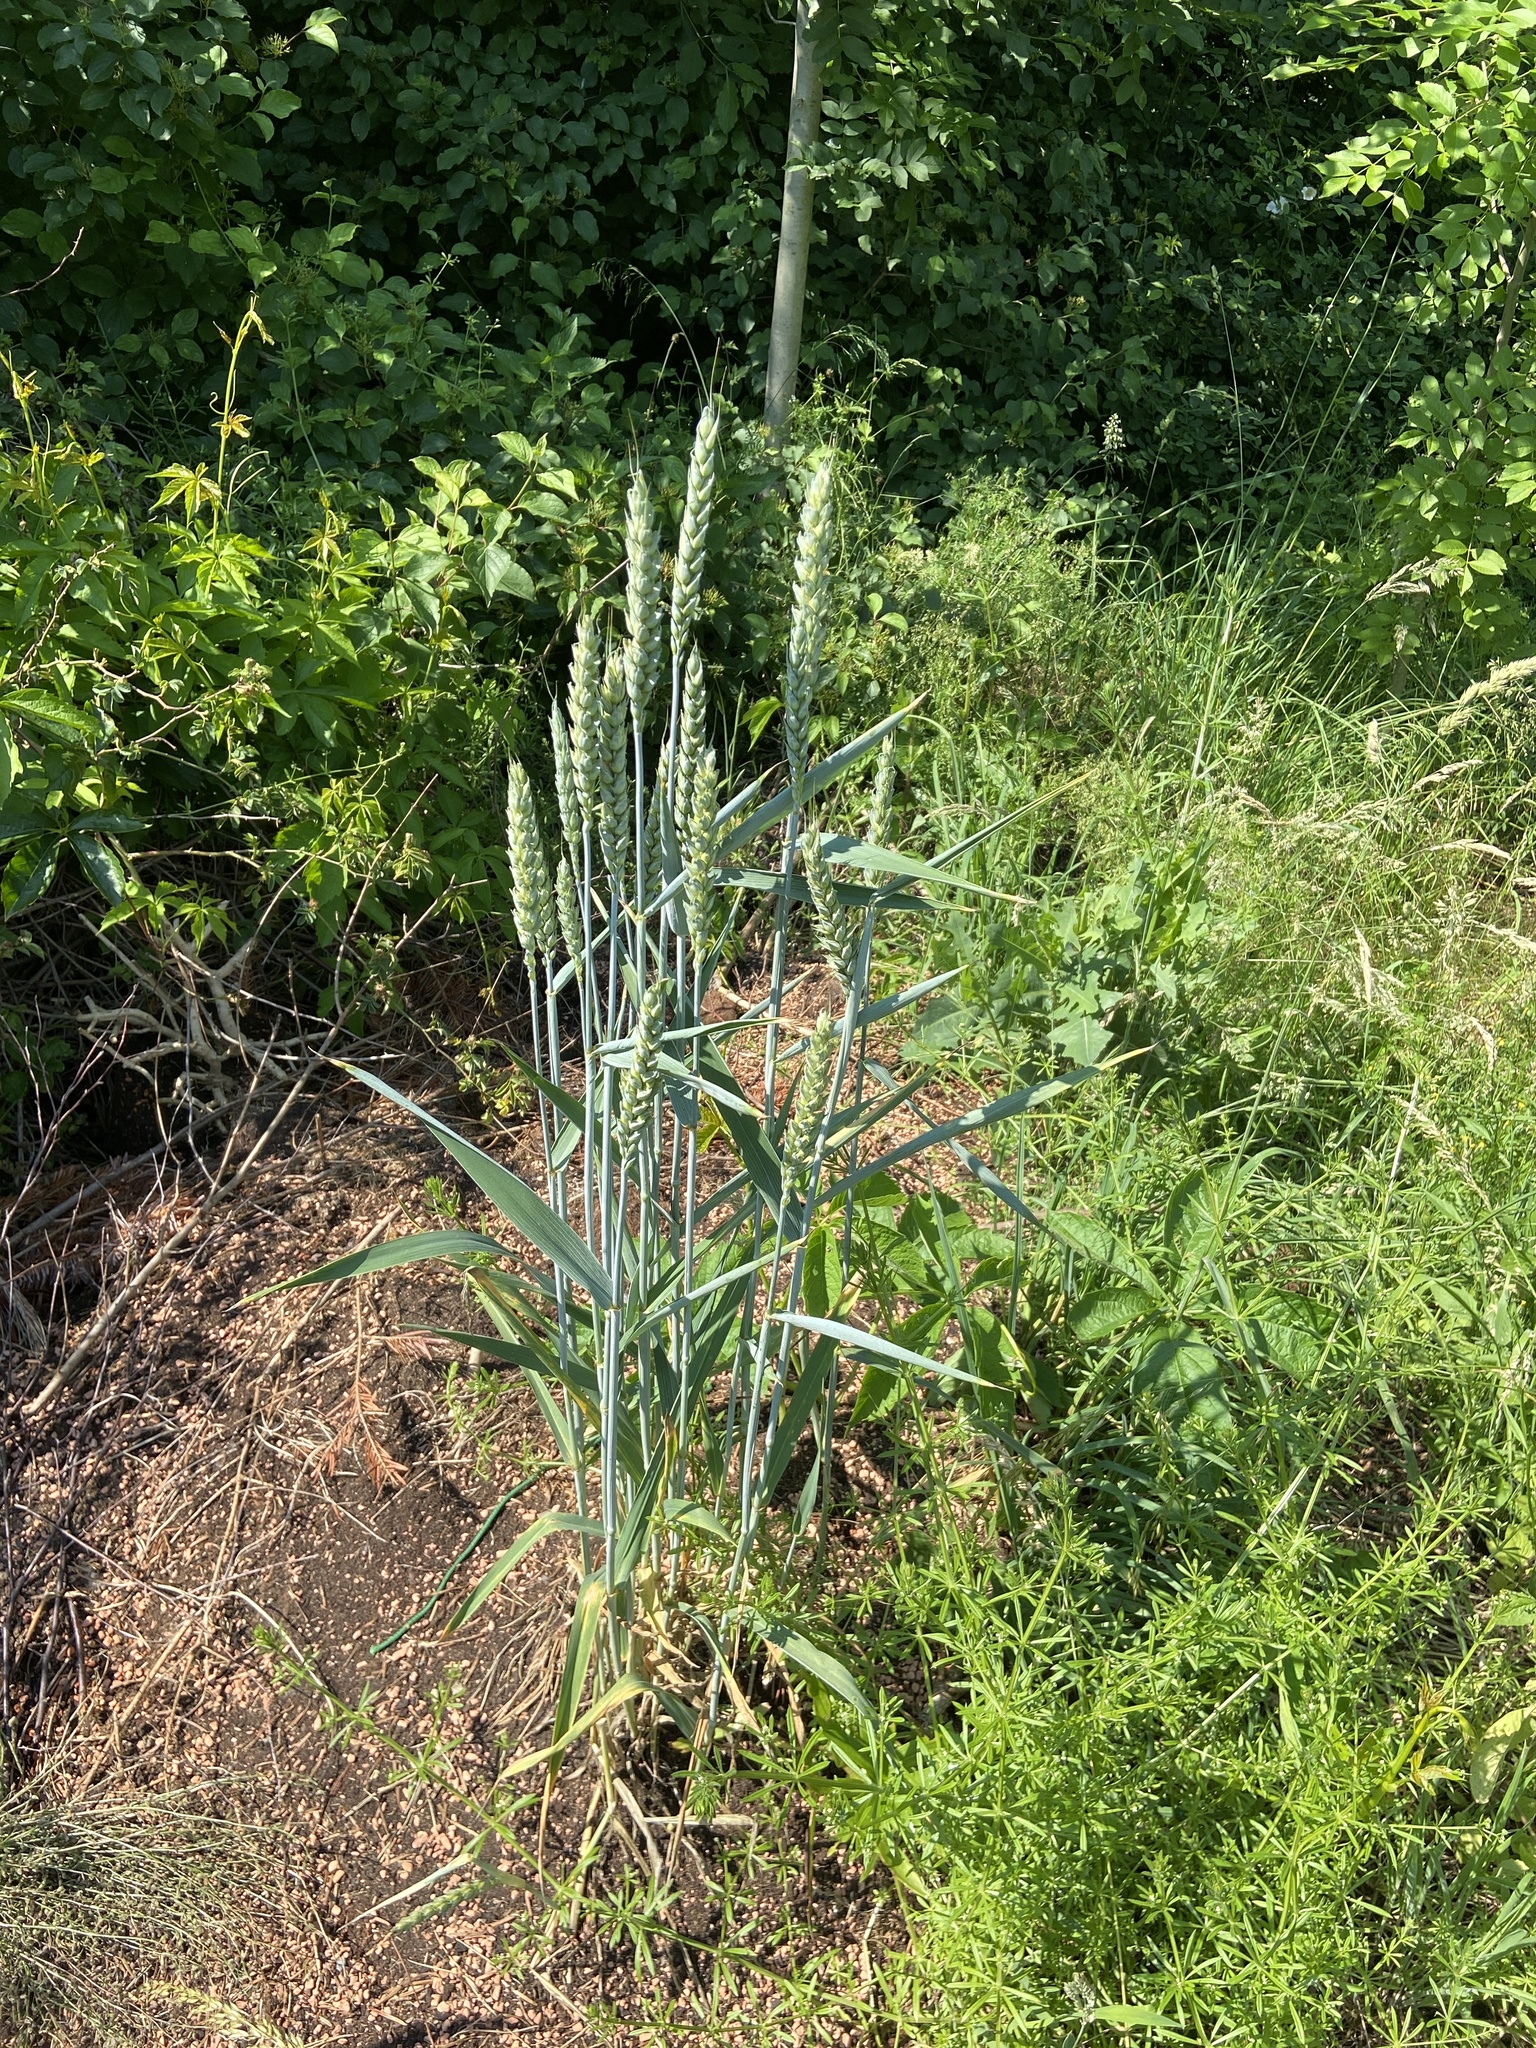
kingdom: Plantae
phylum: Tracheophyta
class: Liliopsida
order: Poales
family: Poaceae
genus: Triticum
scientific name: Triticum aestivum
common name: Common wheat
